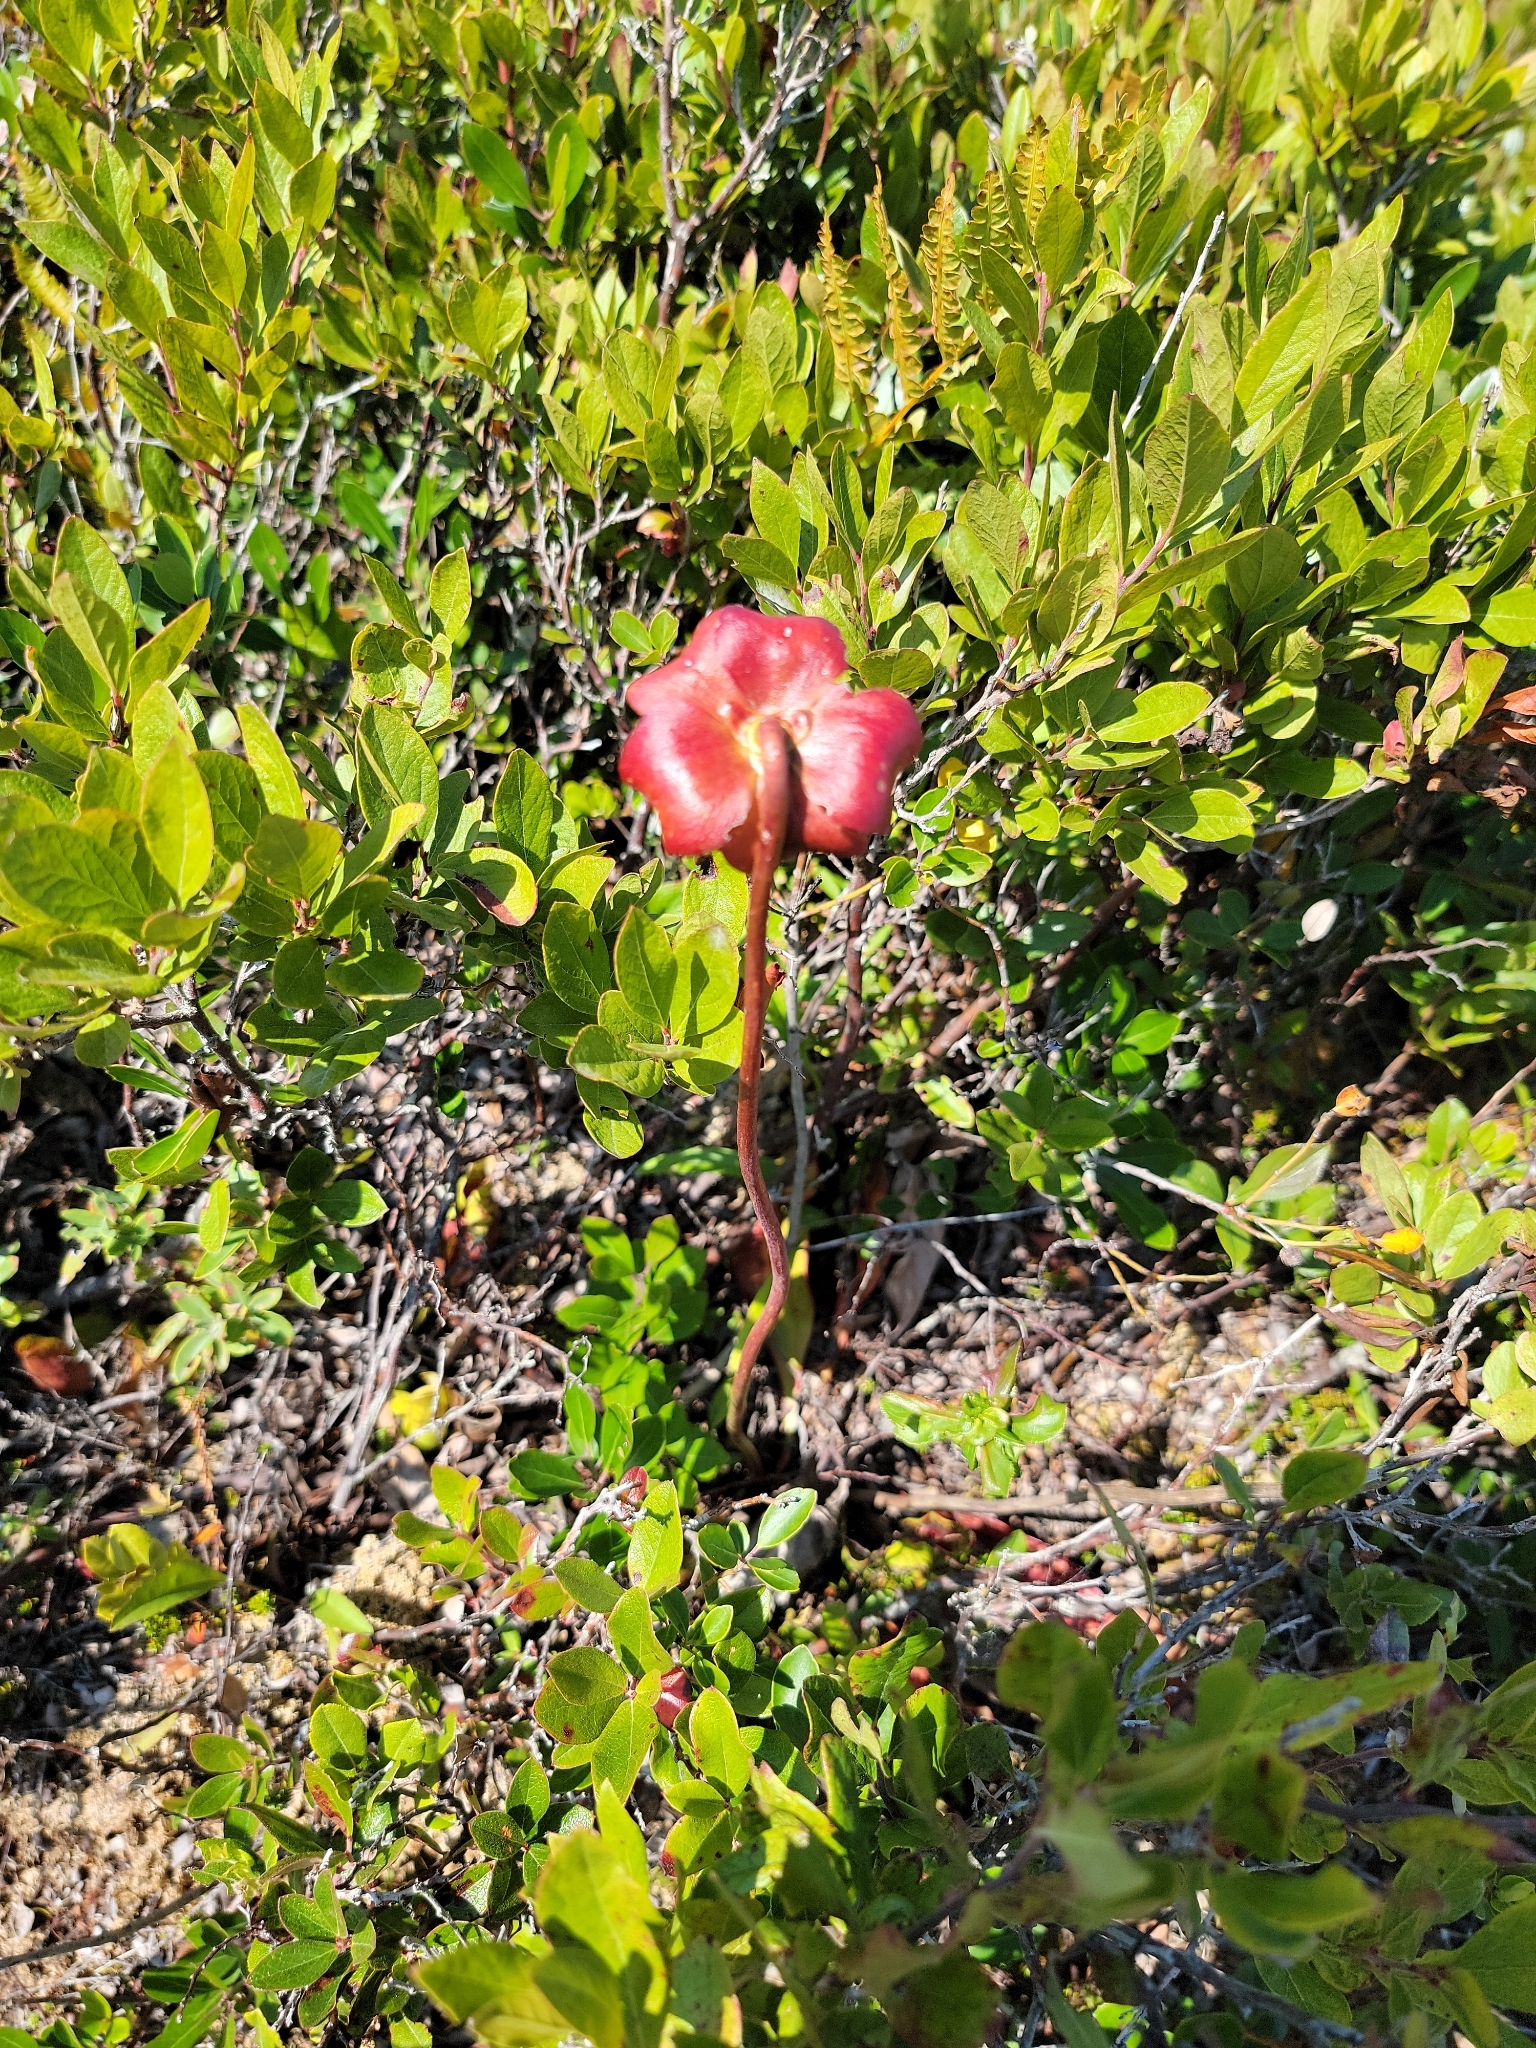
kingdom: Plantae
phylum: Tracheophyta
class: Magnoliopsida
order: Ericales
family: Sarraceniaceae
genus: Sarracenia
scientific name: Sarracenia purpurea
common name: Pitcherplant
